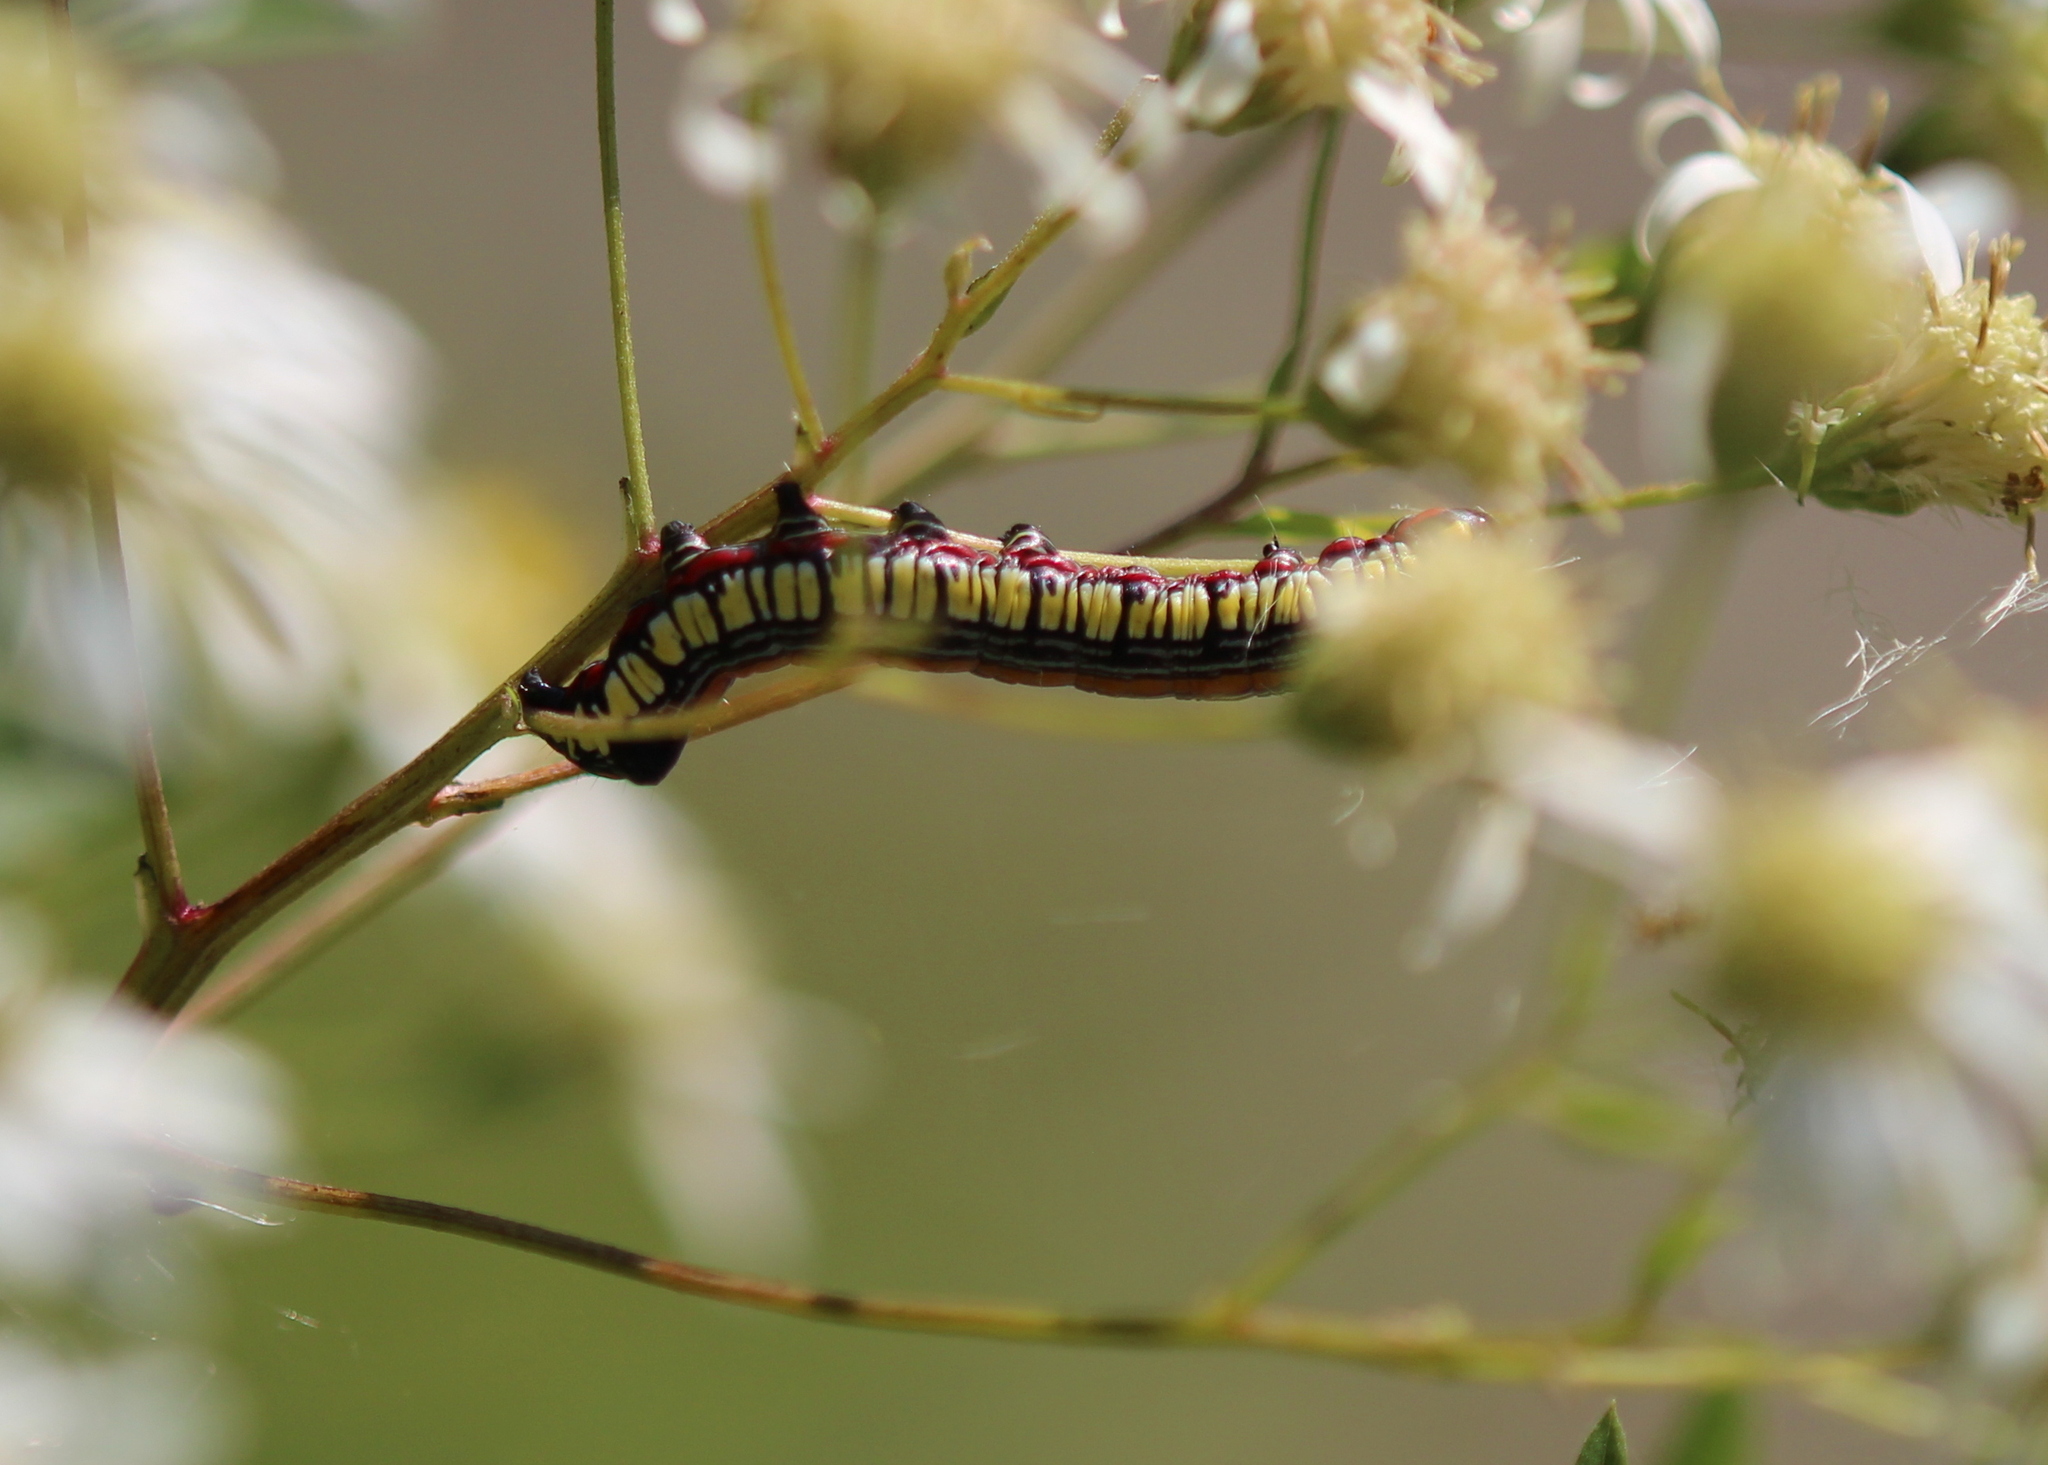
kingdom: Animalia
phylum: Arthropoda
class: Insecta
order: Lepidoptera
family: Noctuidae
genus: Cucullia
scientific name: Cucullia convexipennis
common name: Brown-hooded owlet
